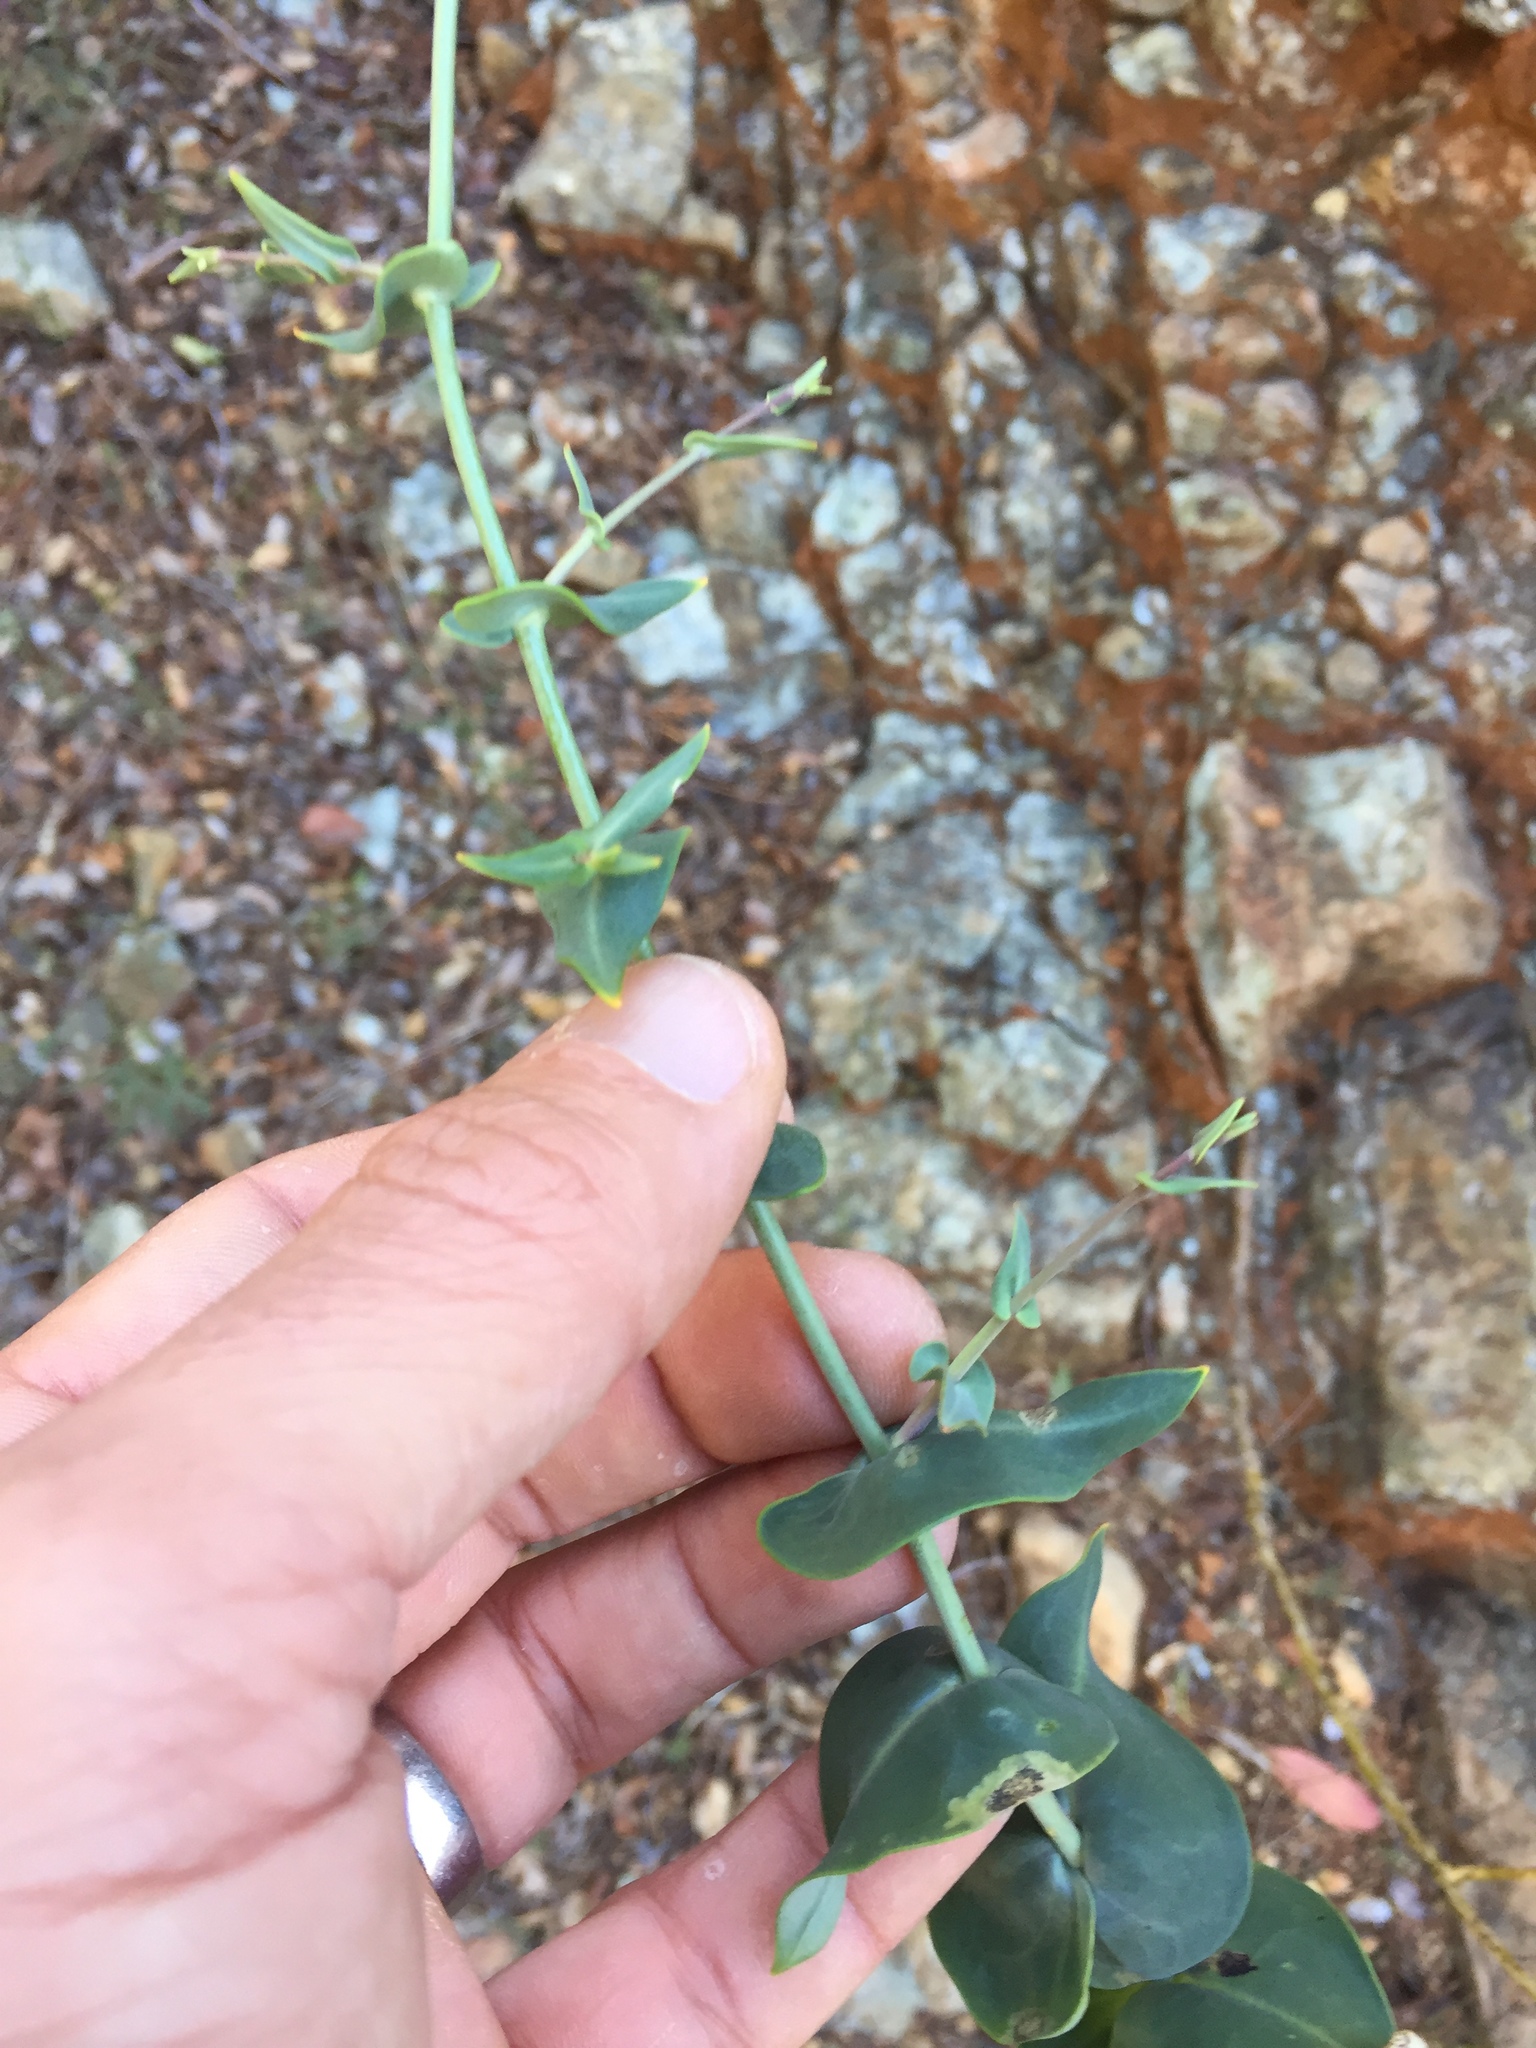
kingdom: Plantae
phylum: Tracheophyta
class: Magnoliopsida
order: Brassicales
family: Brassicaceae
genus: Streptanthus
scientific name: Streptanthus morrisonii
